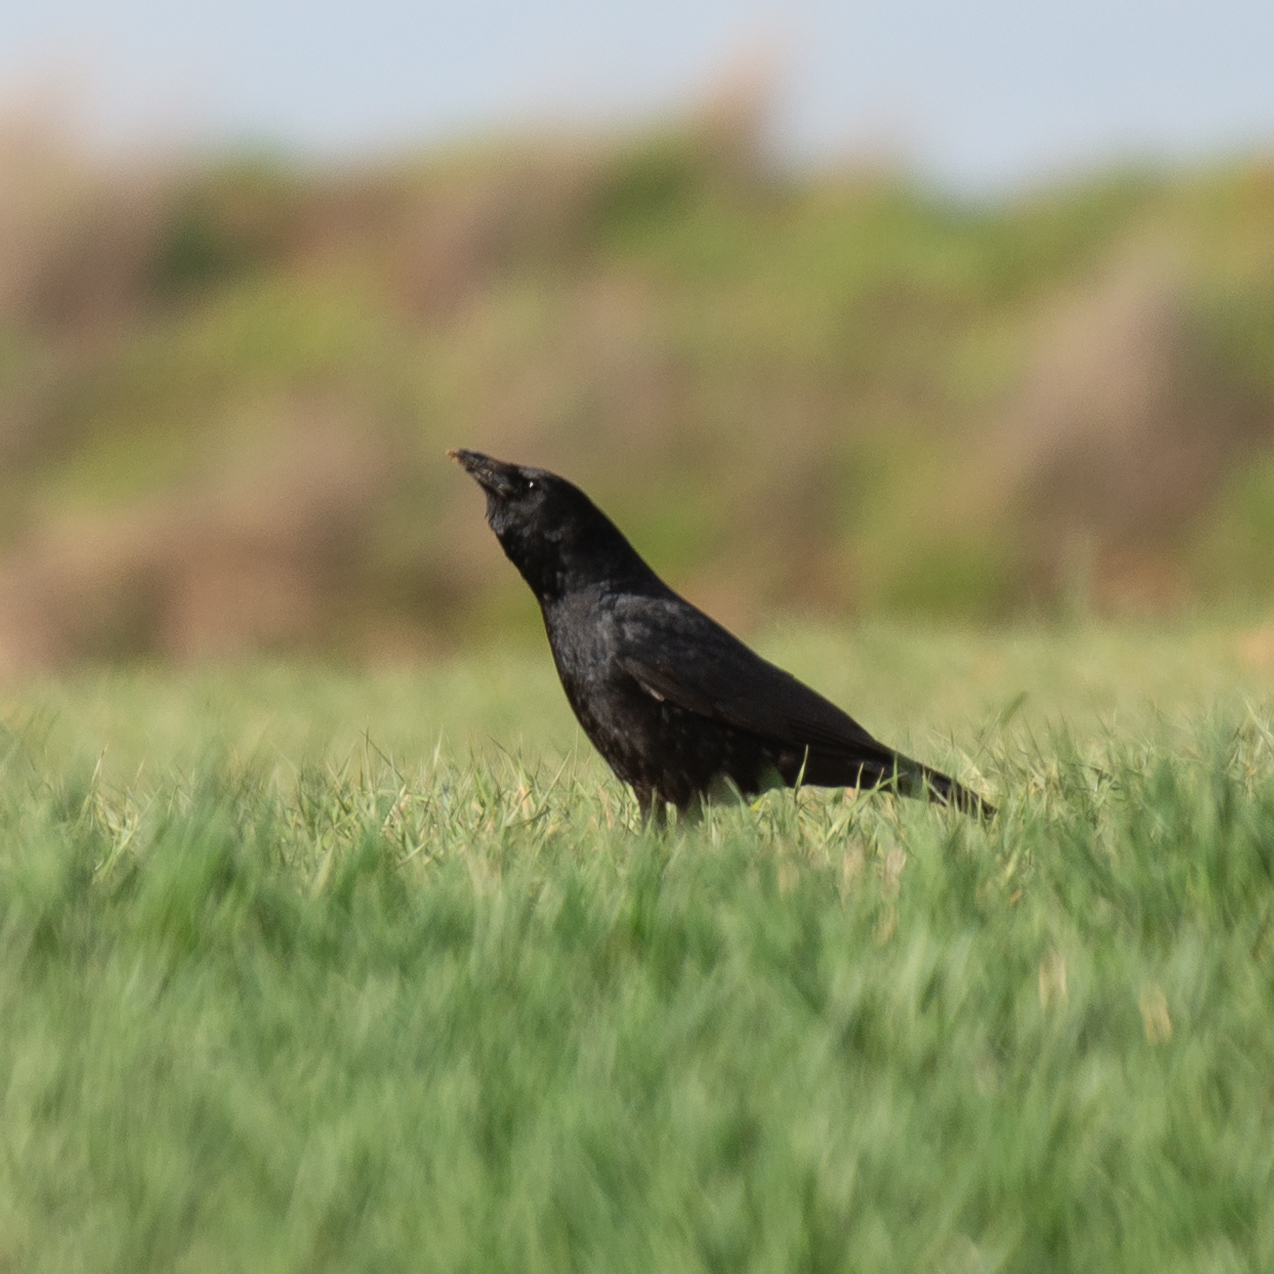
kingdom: Animalia
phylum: Chordata
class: Aves
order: Passeriformes
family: Corvidae
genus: Corvus
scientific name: Corvus corone
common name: Carrion crow
